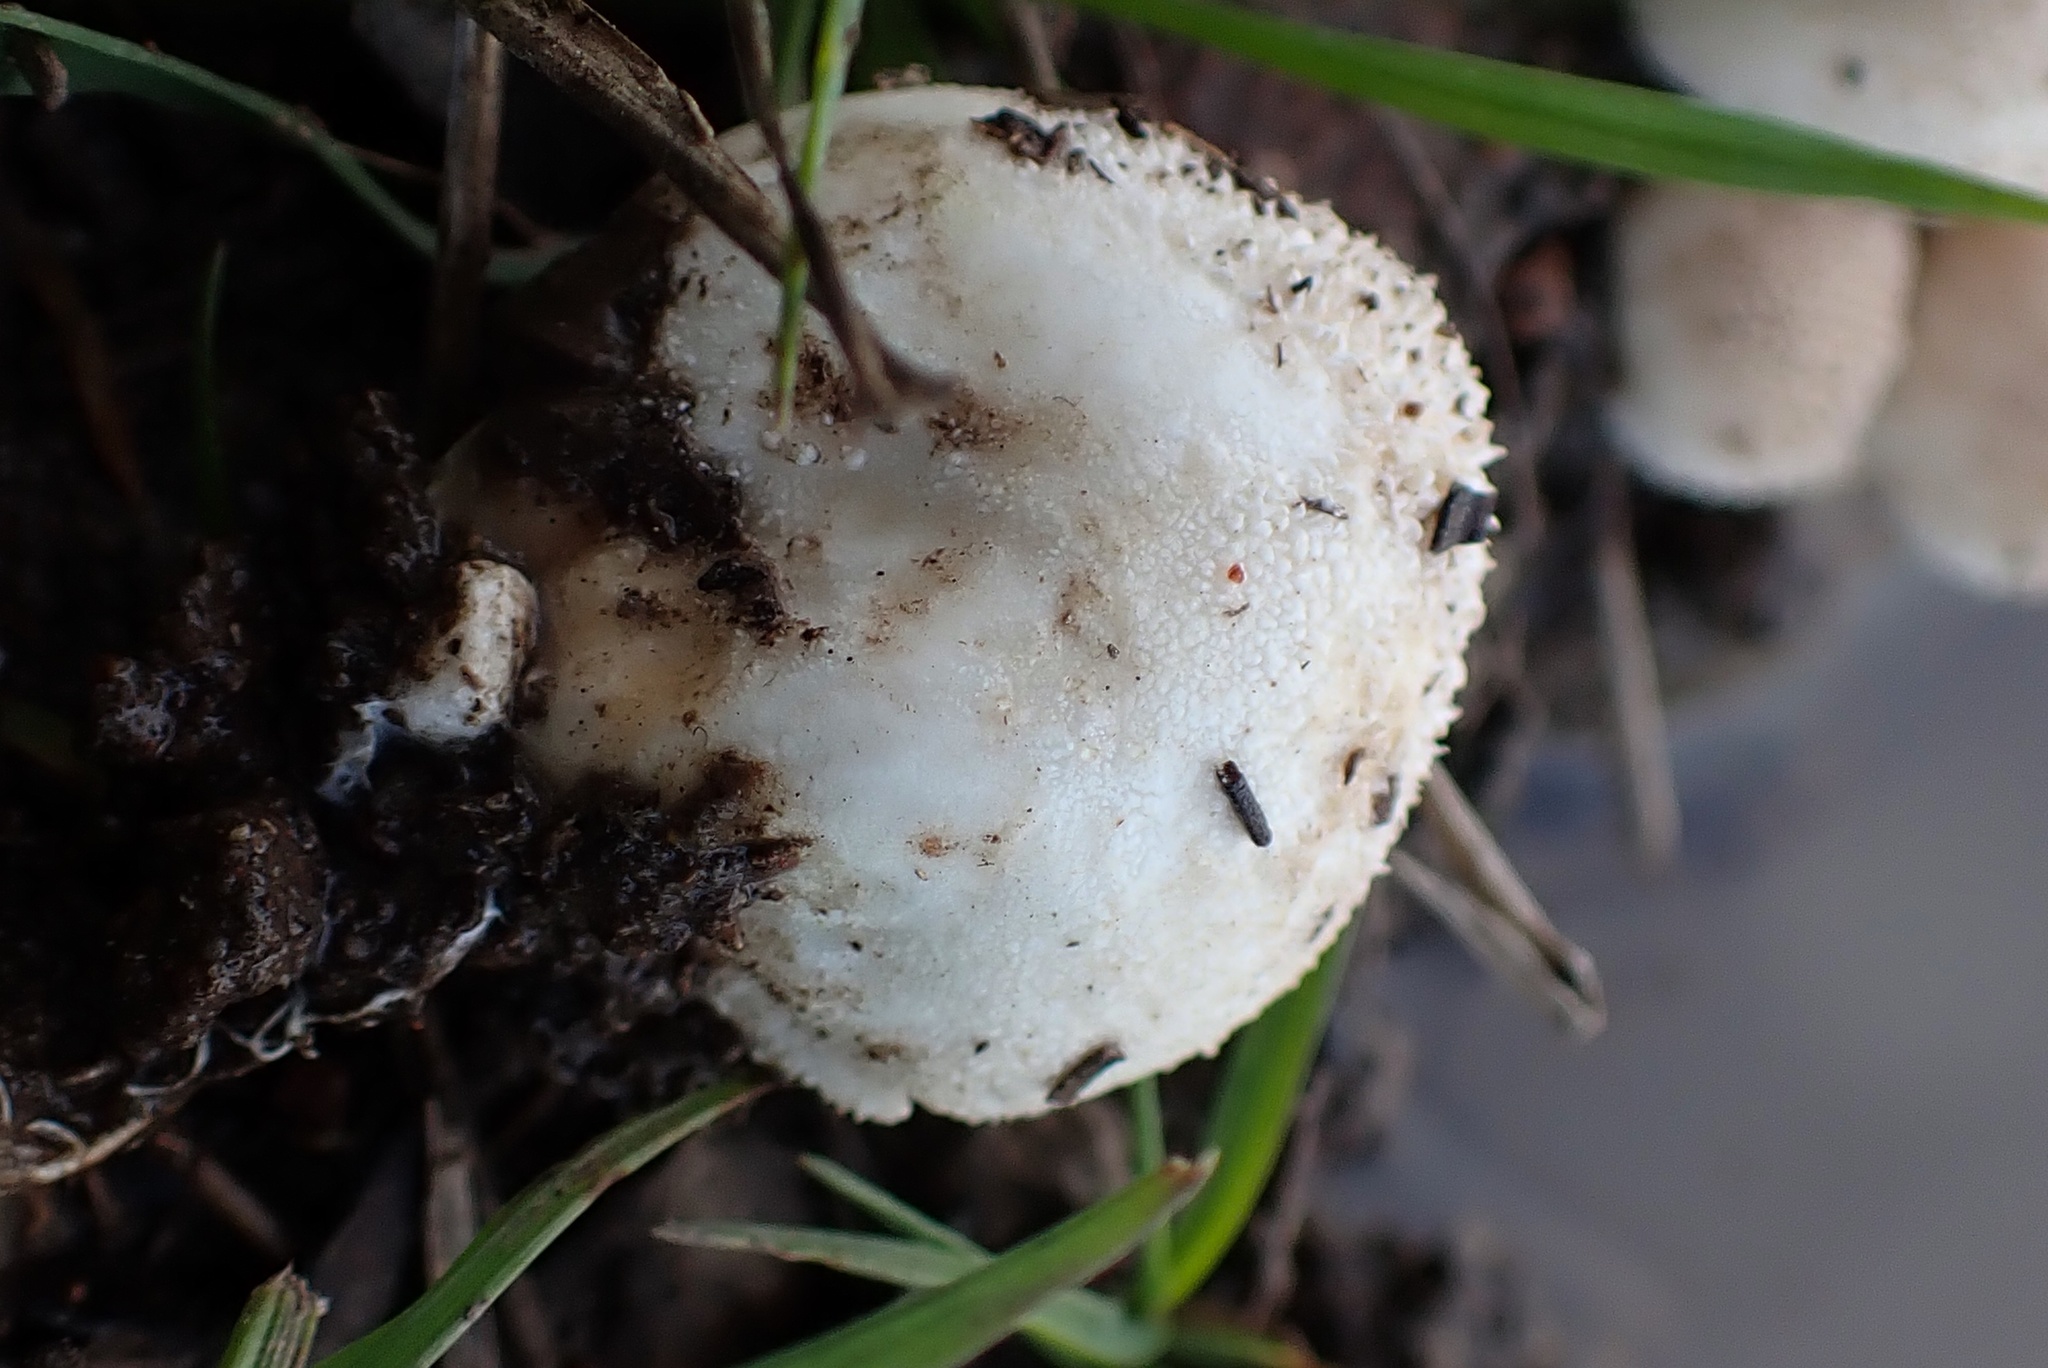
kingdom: Fungi
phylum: Basidiomycota
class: Agaricomycetes
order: Agaricales
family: Agaricaceae
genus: Lycoperdon
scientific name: Lycoperdon marginatum
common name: Peeling puffball
